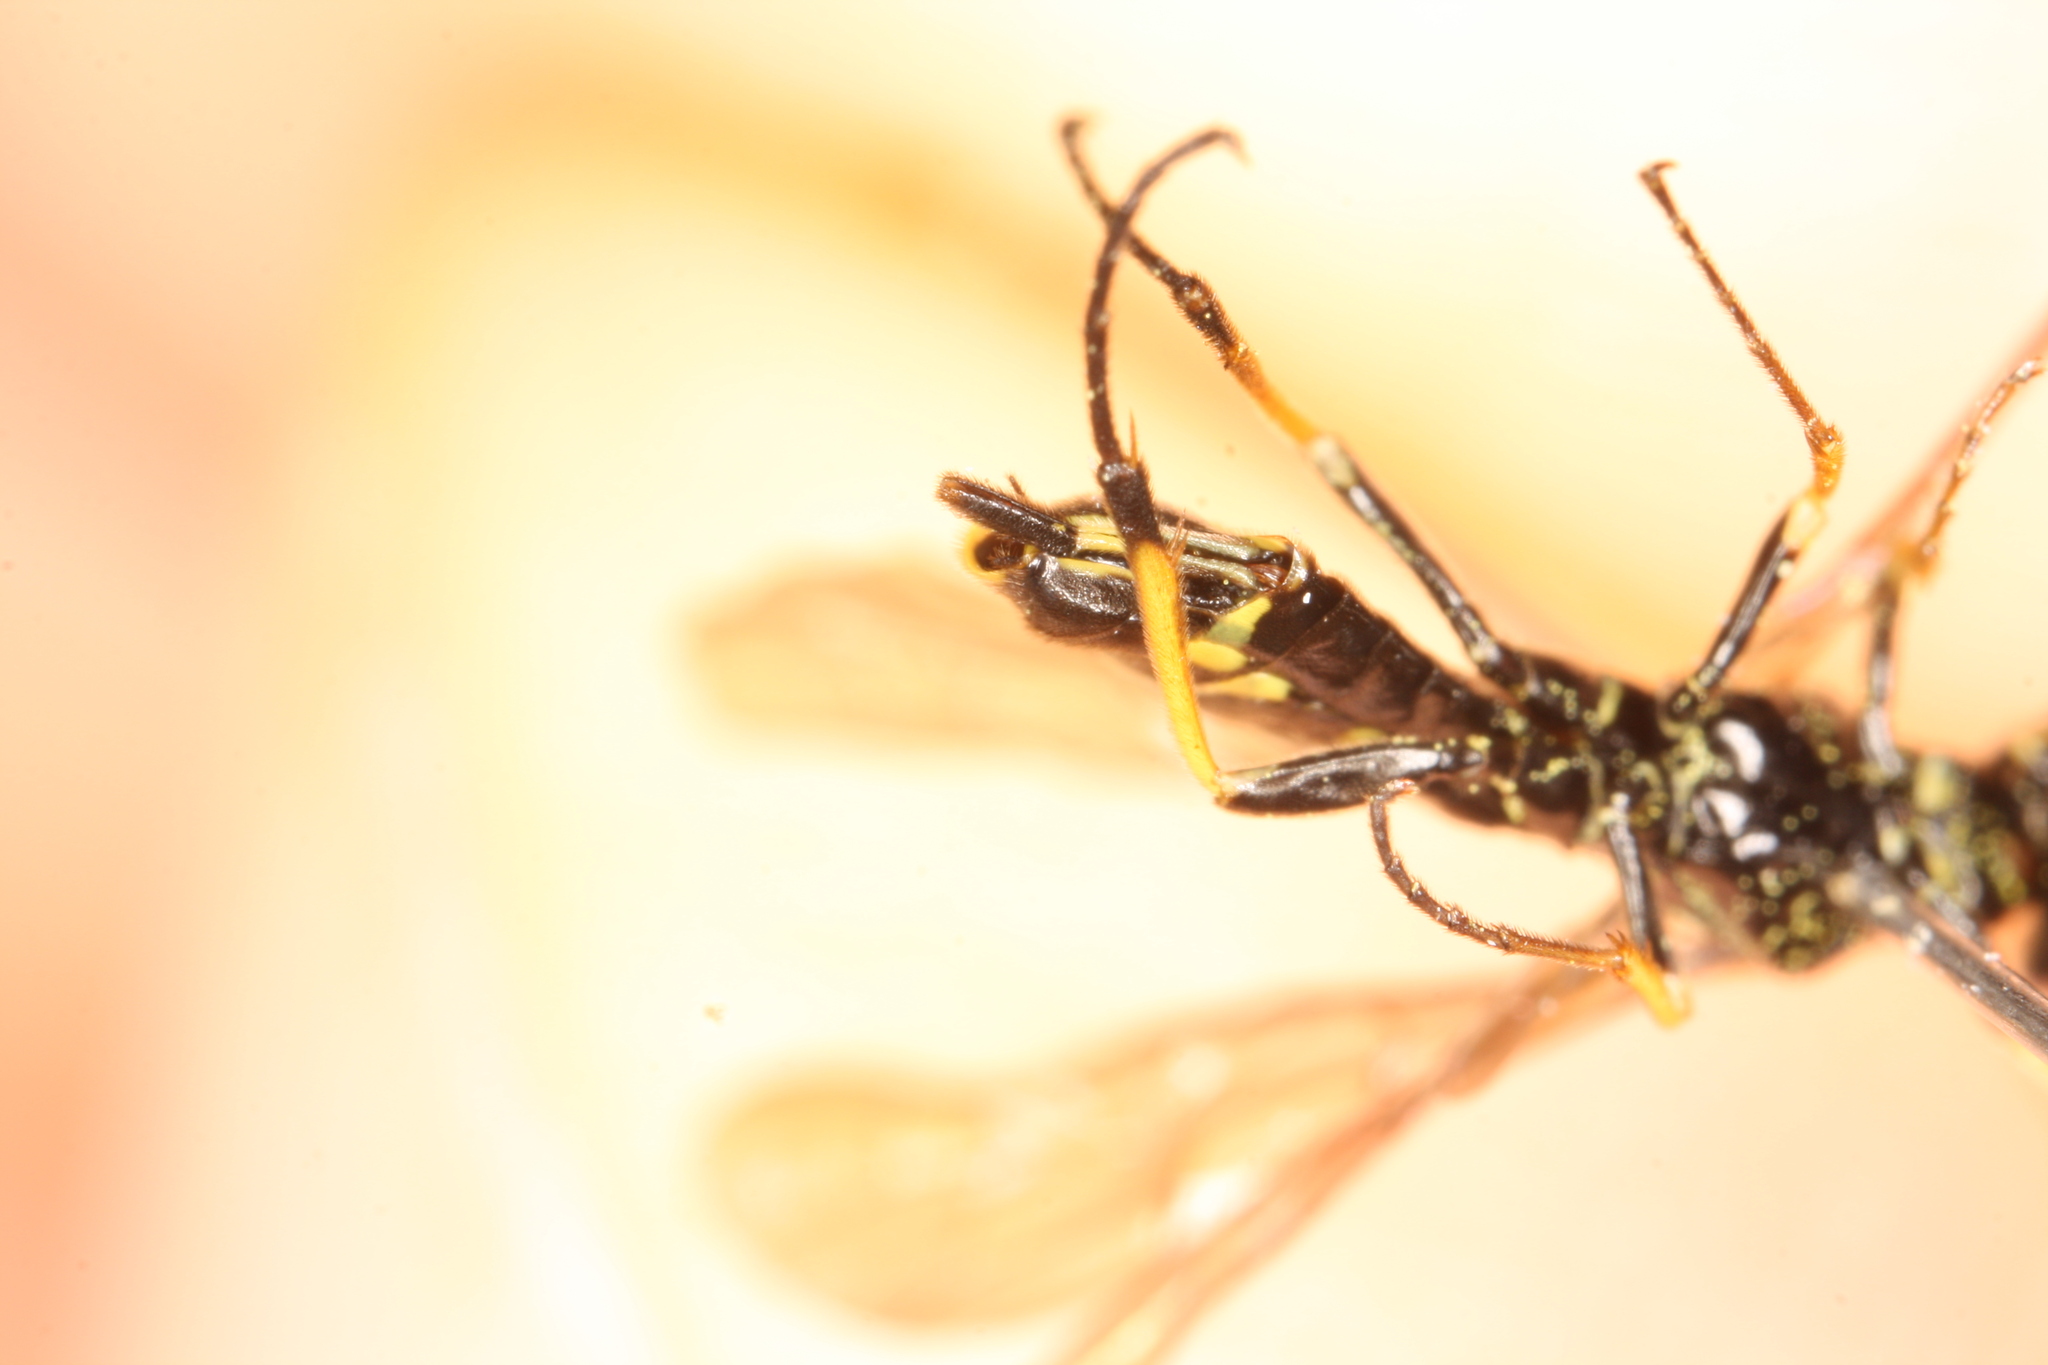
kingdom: Animalia
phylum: Arthropoda
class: Insecta
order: Hymenoptera
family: Cephidae
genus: Cephus
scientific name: Cephus spinipes
